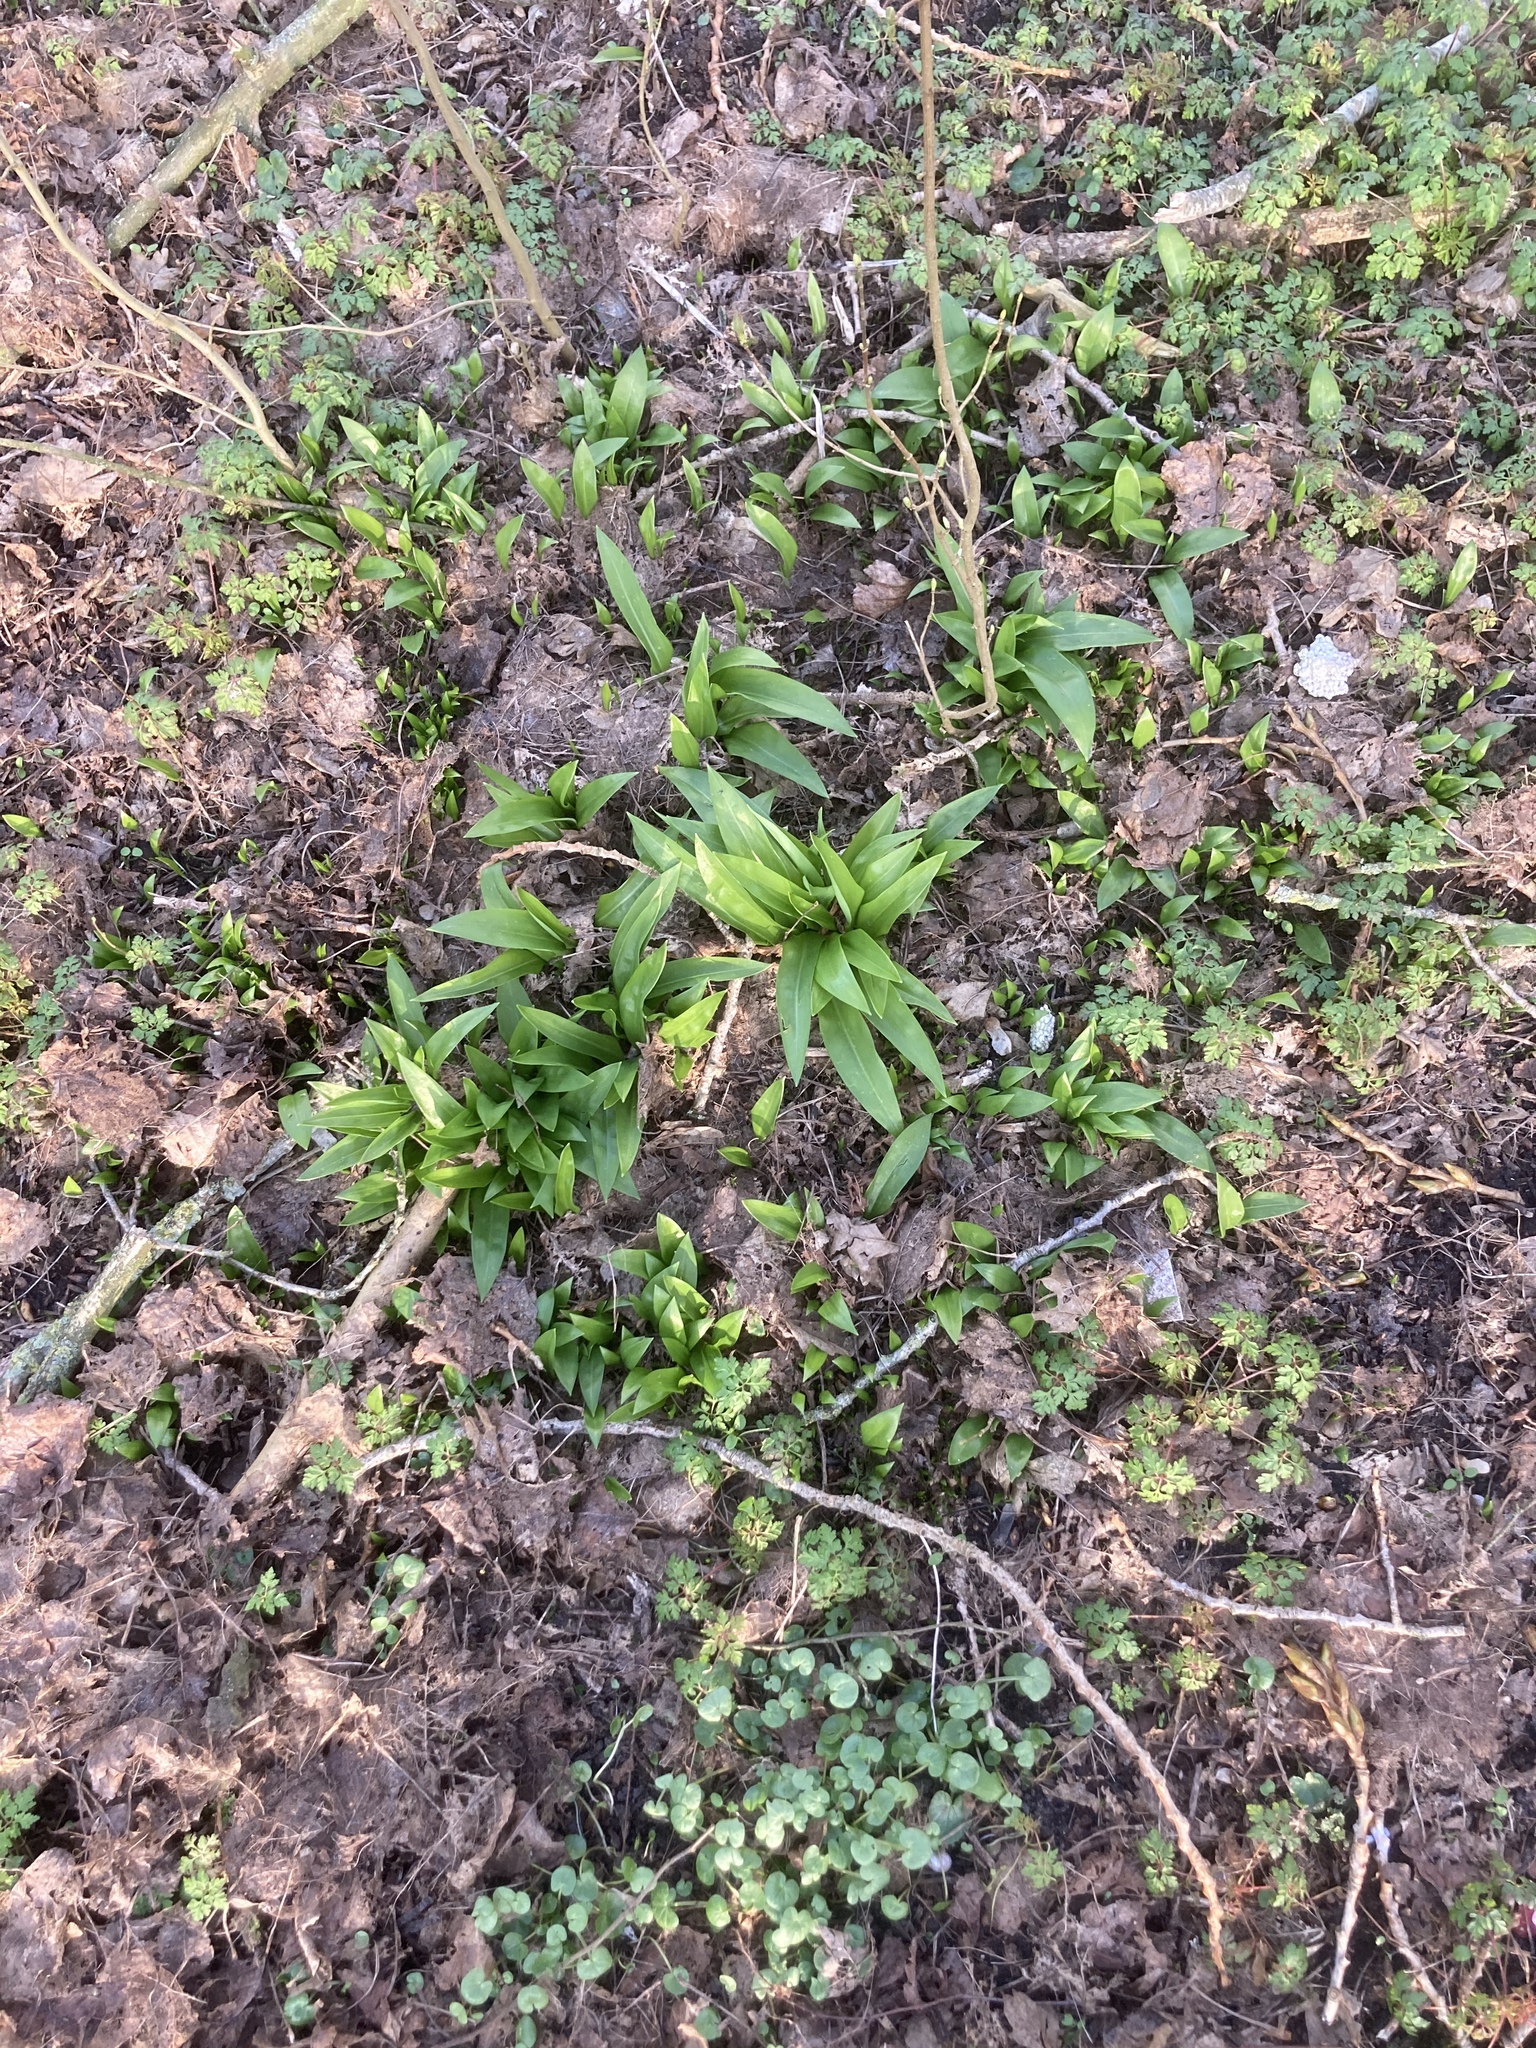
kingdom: Plantae
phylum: Tracheophyta
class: Liliopsida
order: Asparagales
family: Amaryllidaceae
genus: Allium
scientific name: Allium ursinum
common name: Ramsons
